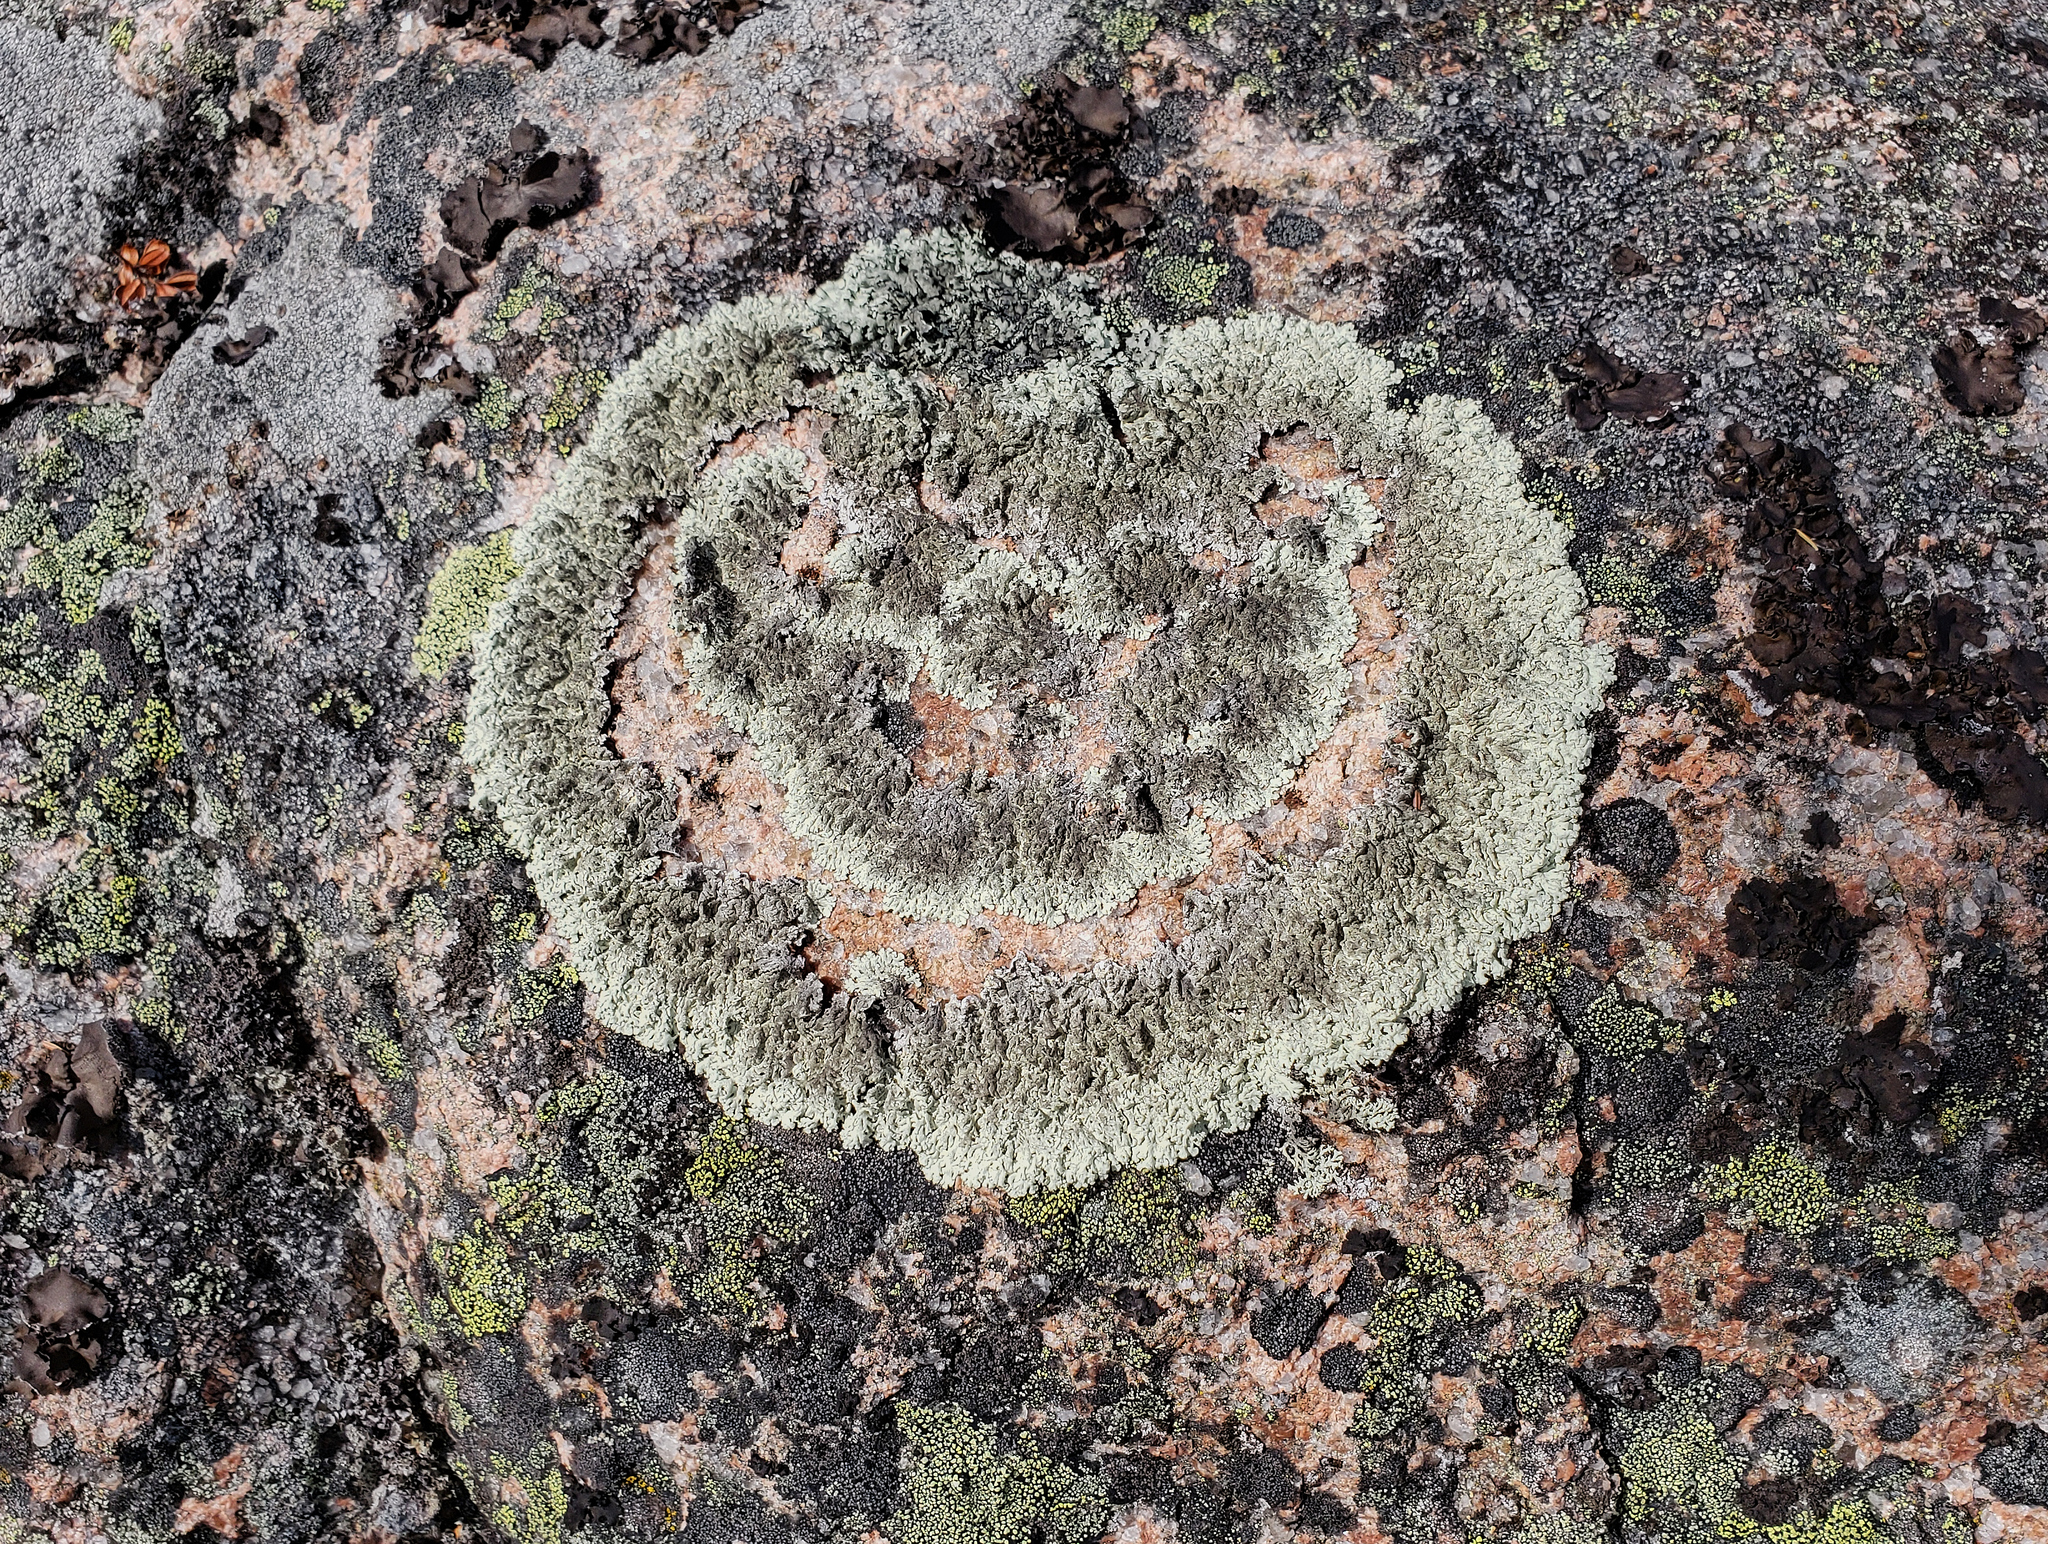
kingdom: Fungi
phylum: Ascomycota
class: Lecanoromycetes
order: Lecanorales
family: Parmeliaceae
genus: Arctoparmelia
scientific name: Arctoparmelia centrifuga
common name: Concentric ring lichen
